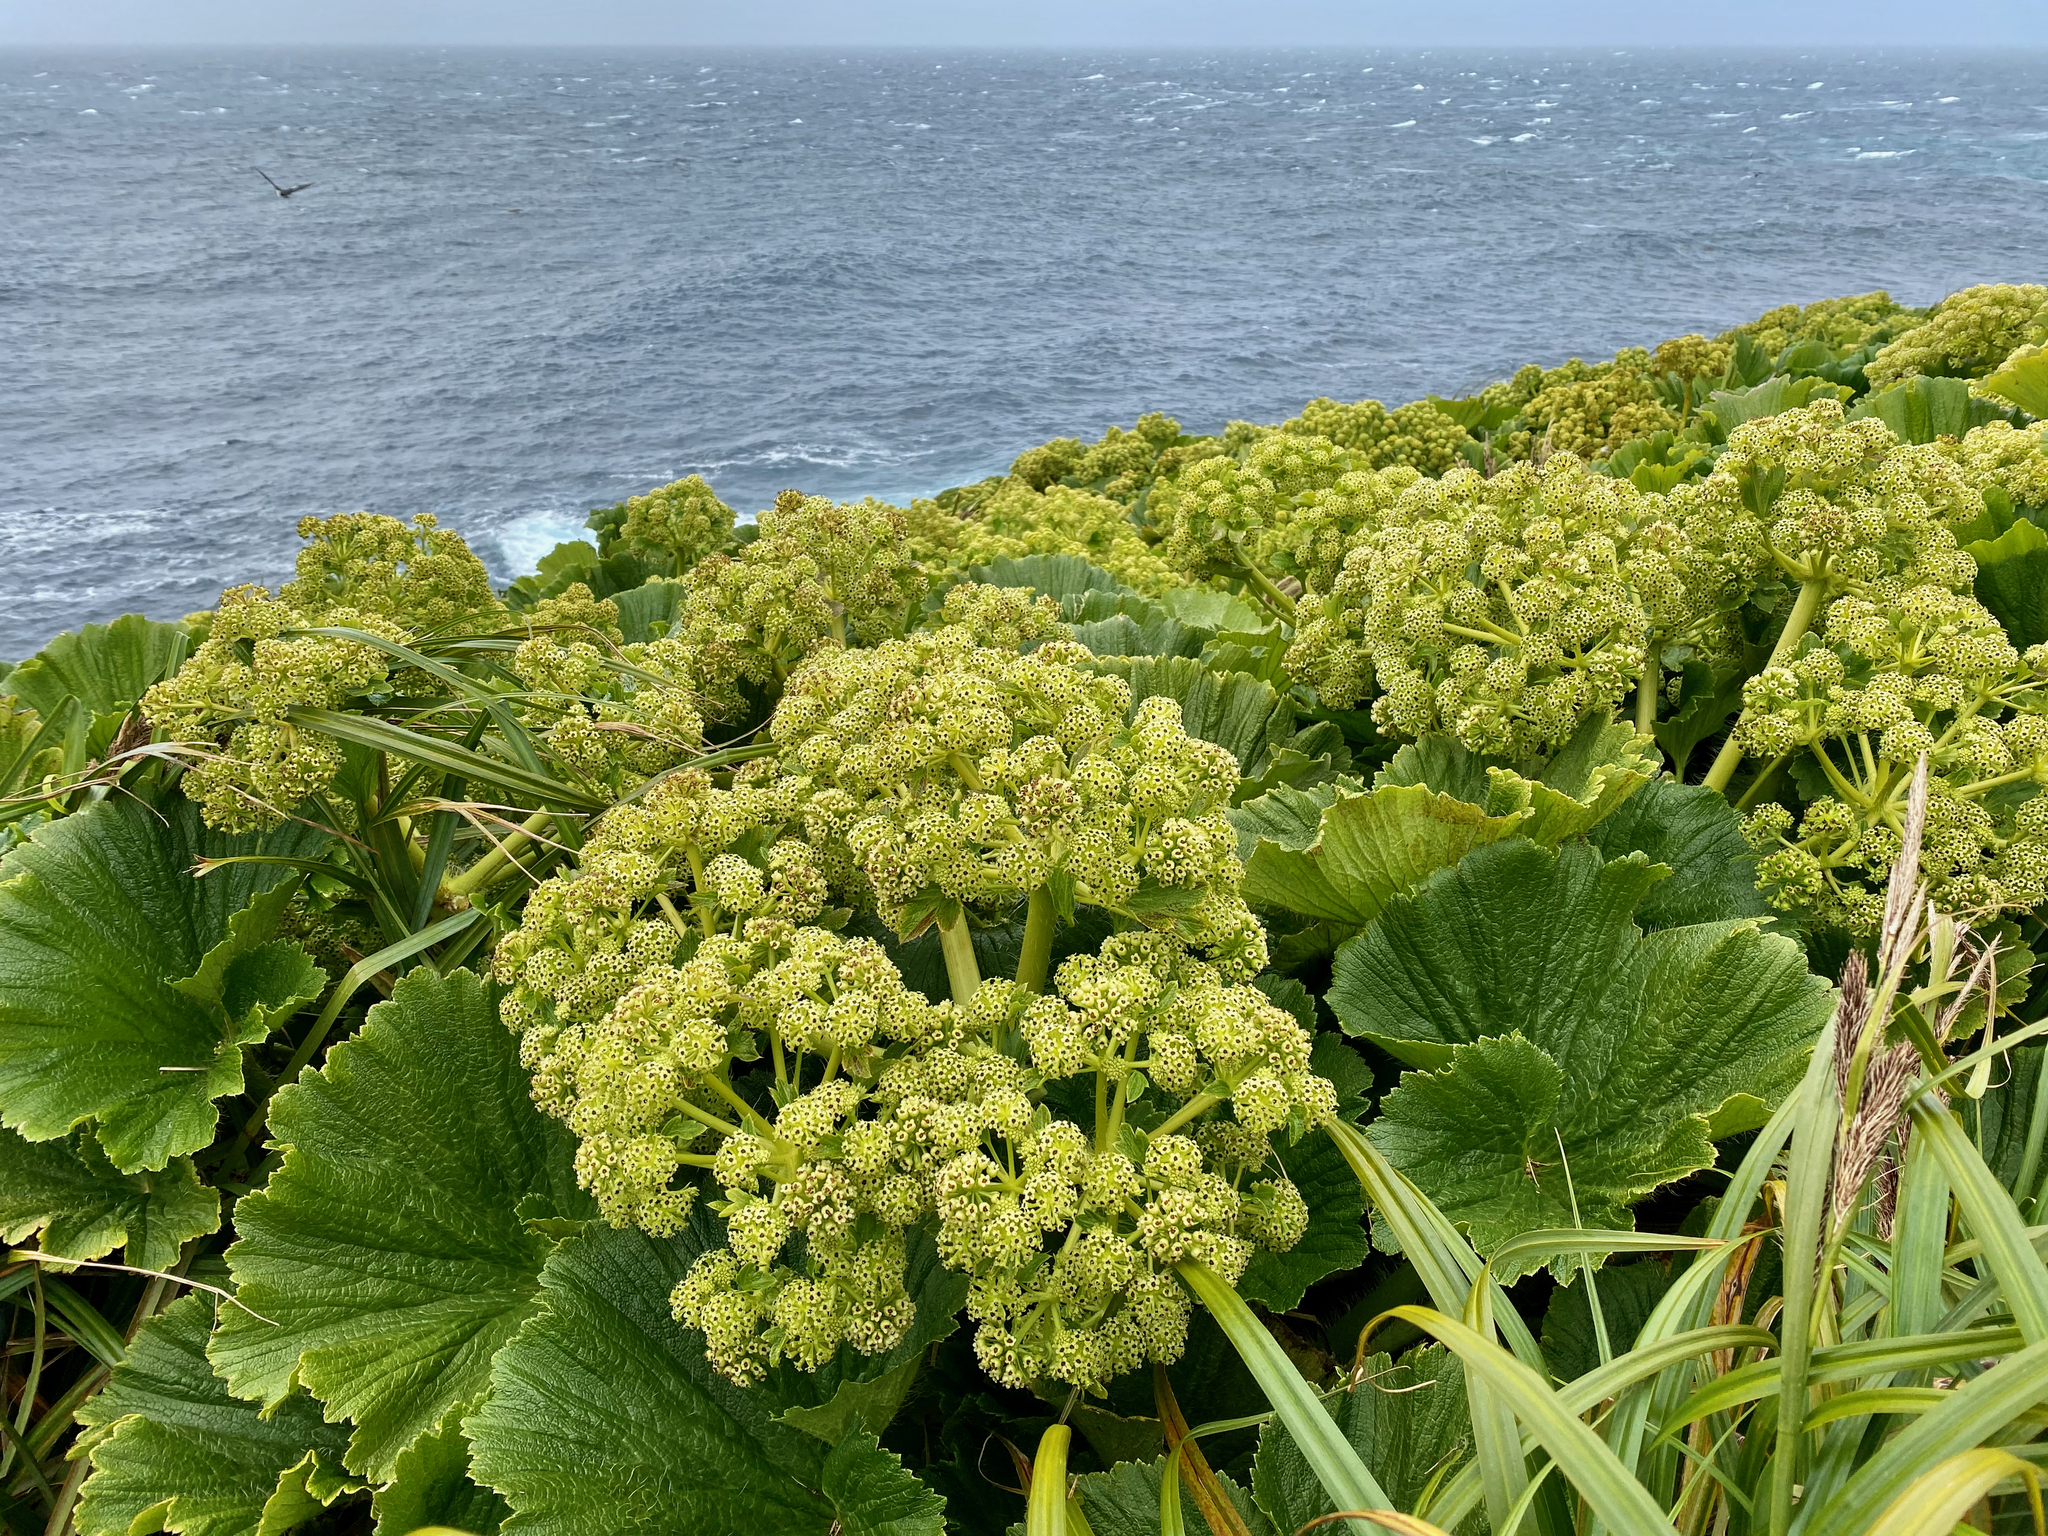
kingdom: Plantae
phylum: Tracheophyta
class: Magnoliopsida
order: Apiales
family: Apiaceae
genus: Azorella
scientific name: Azorella polaris
